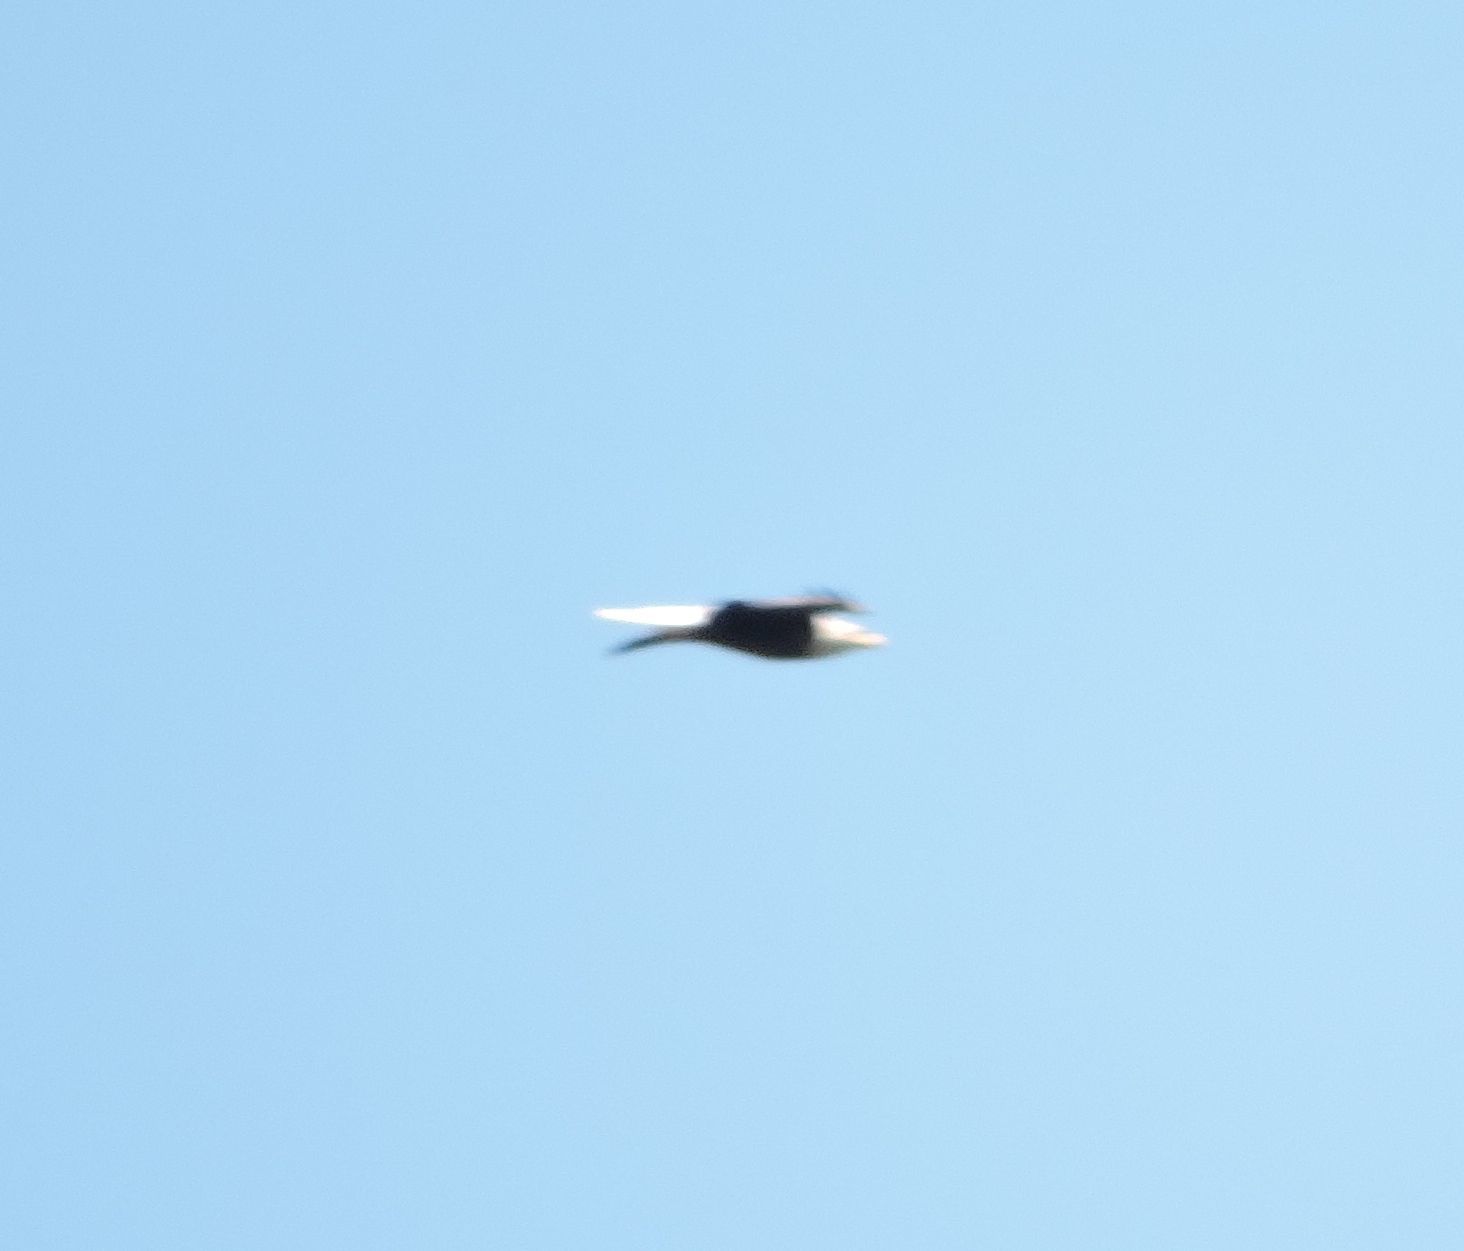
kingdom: Animalia
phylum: Chordata
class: Aves
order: Accipitriformes
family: Accipitridae
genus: Haliaeetus
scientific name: Haliaeetus leucocephalus
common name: Bald eagle
